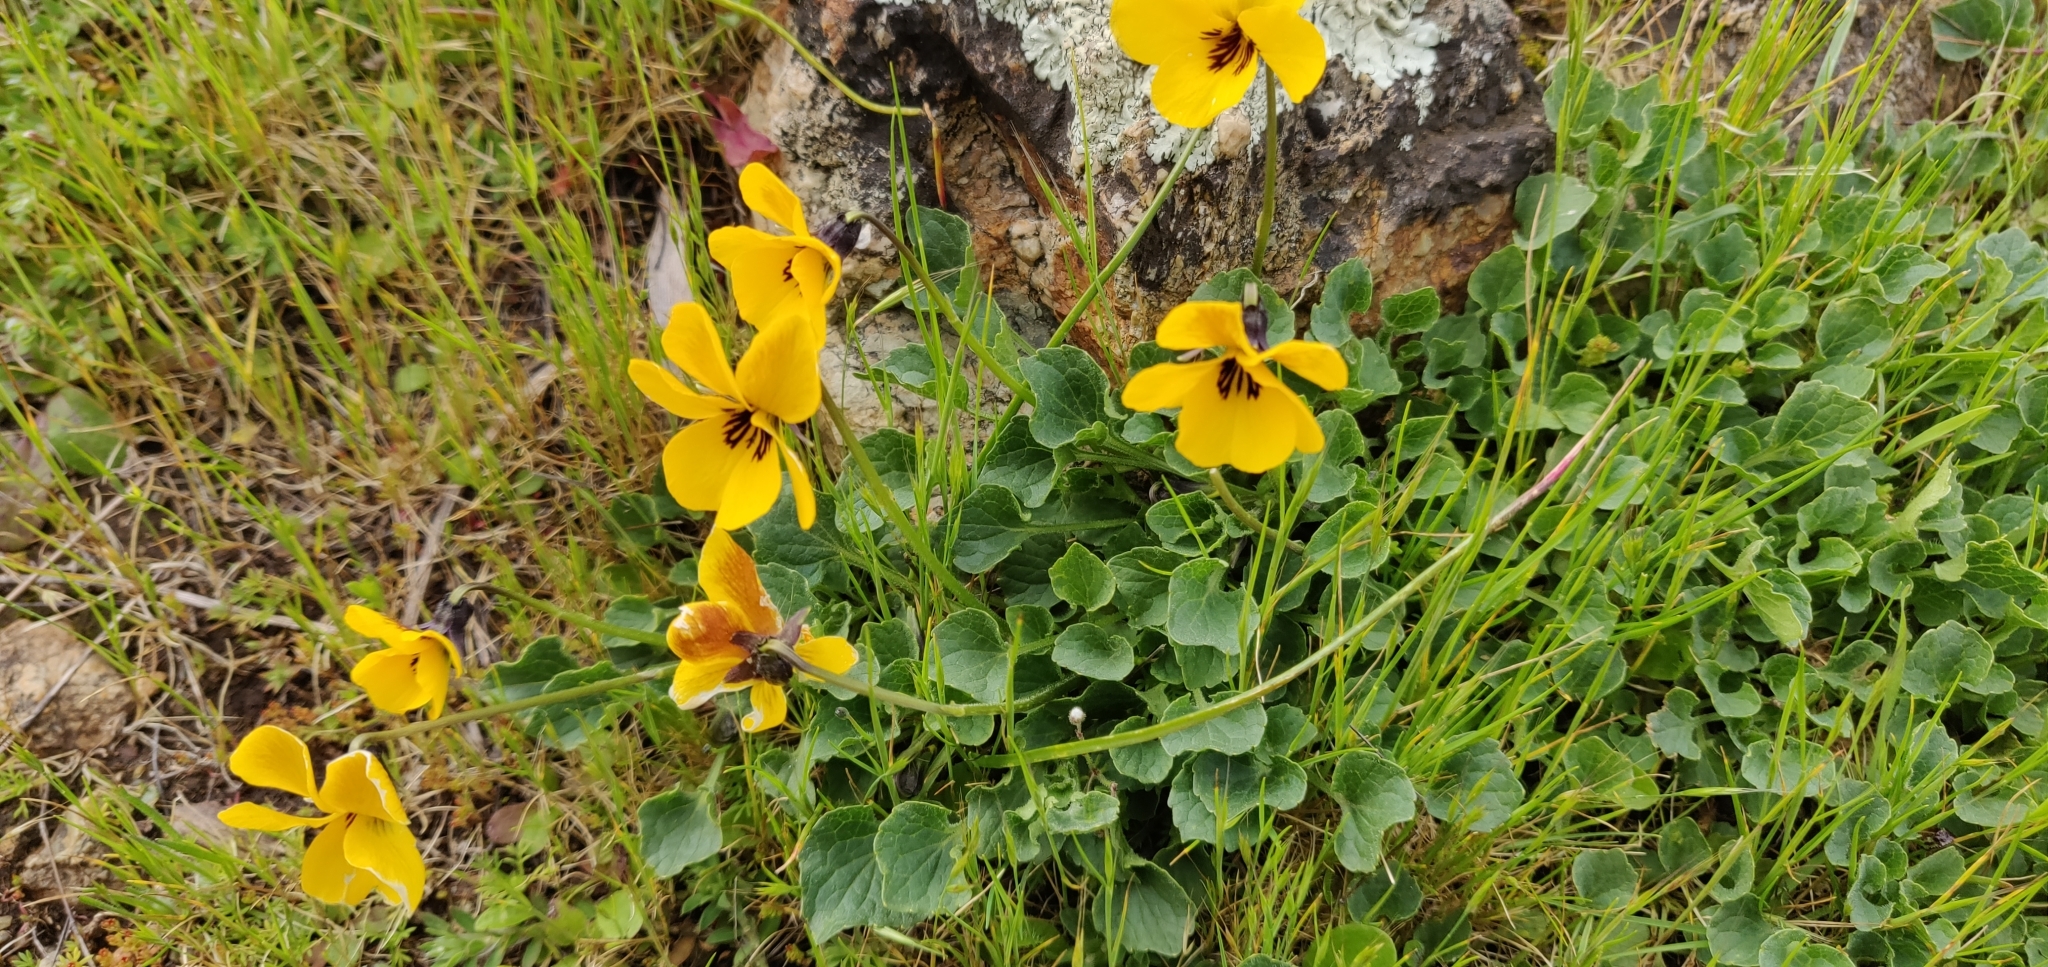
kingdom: Plantae
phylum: Tracheophyta
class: Magnoliopsida
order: Malpighiales
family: Violaceae
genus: Viola
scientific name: Viola pedunculata
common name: California golden violet
